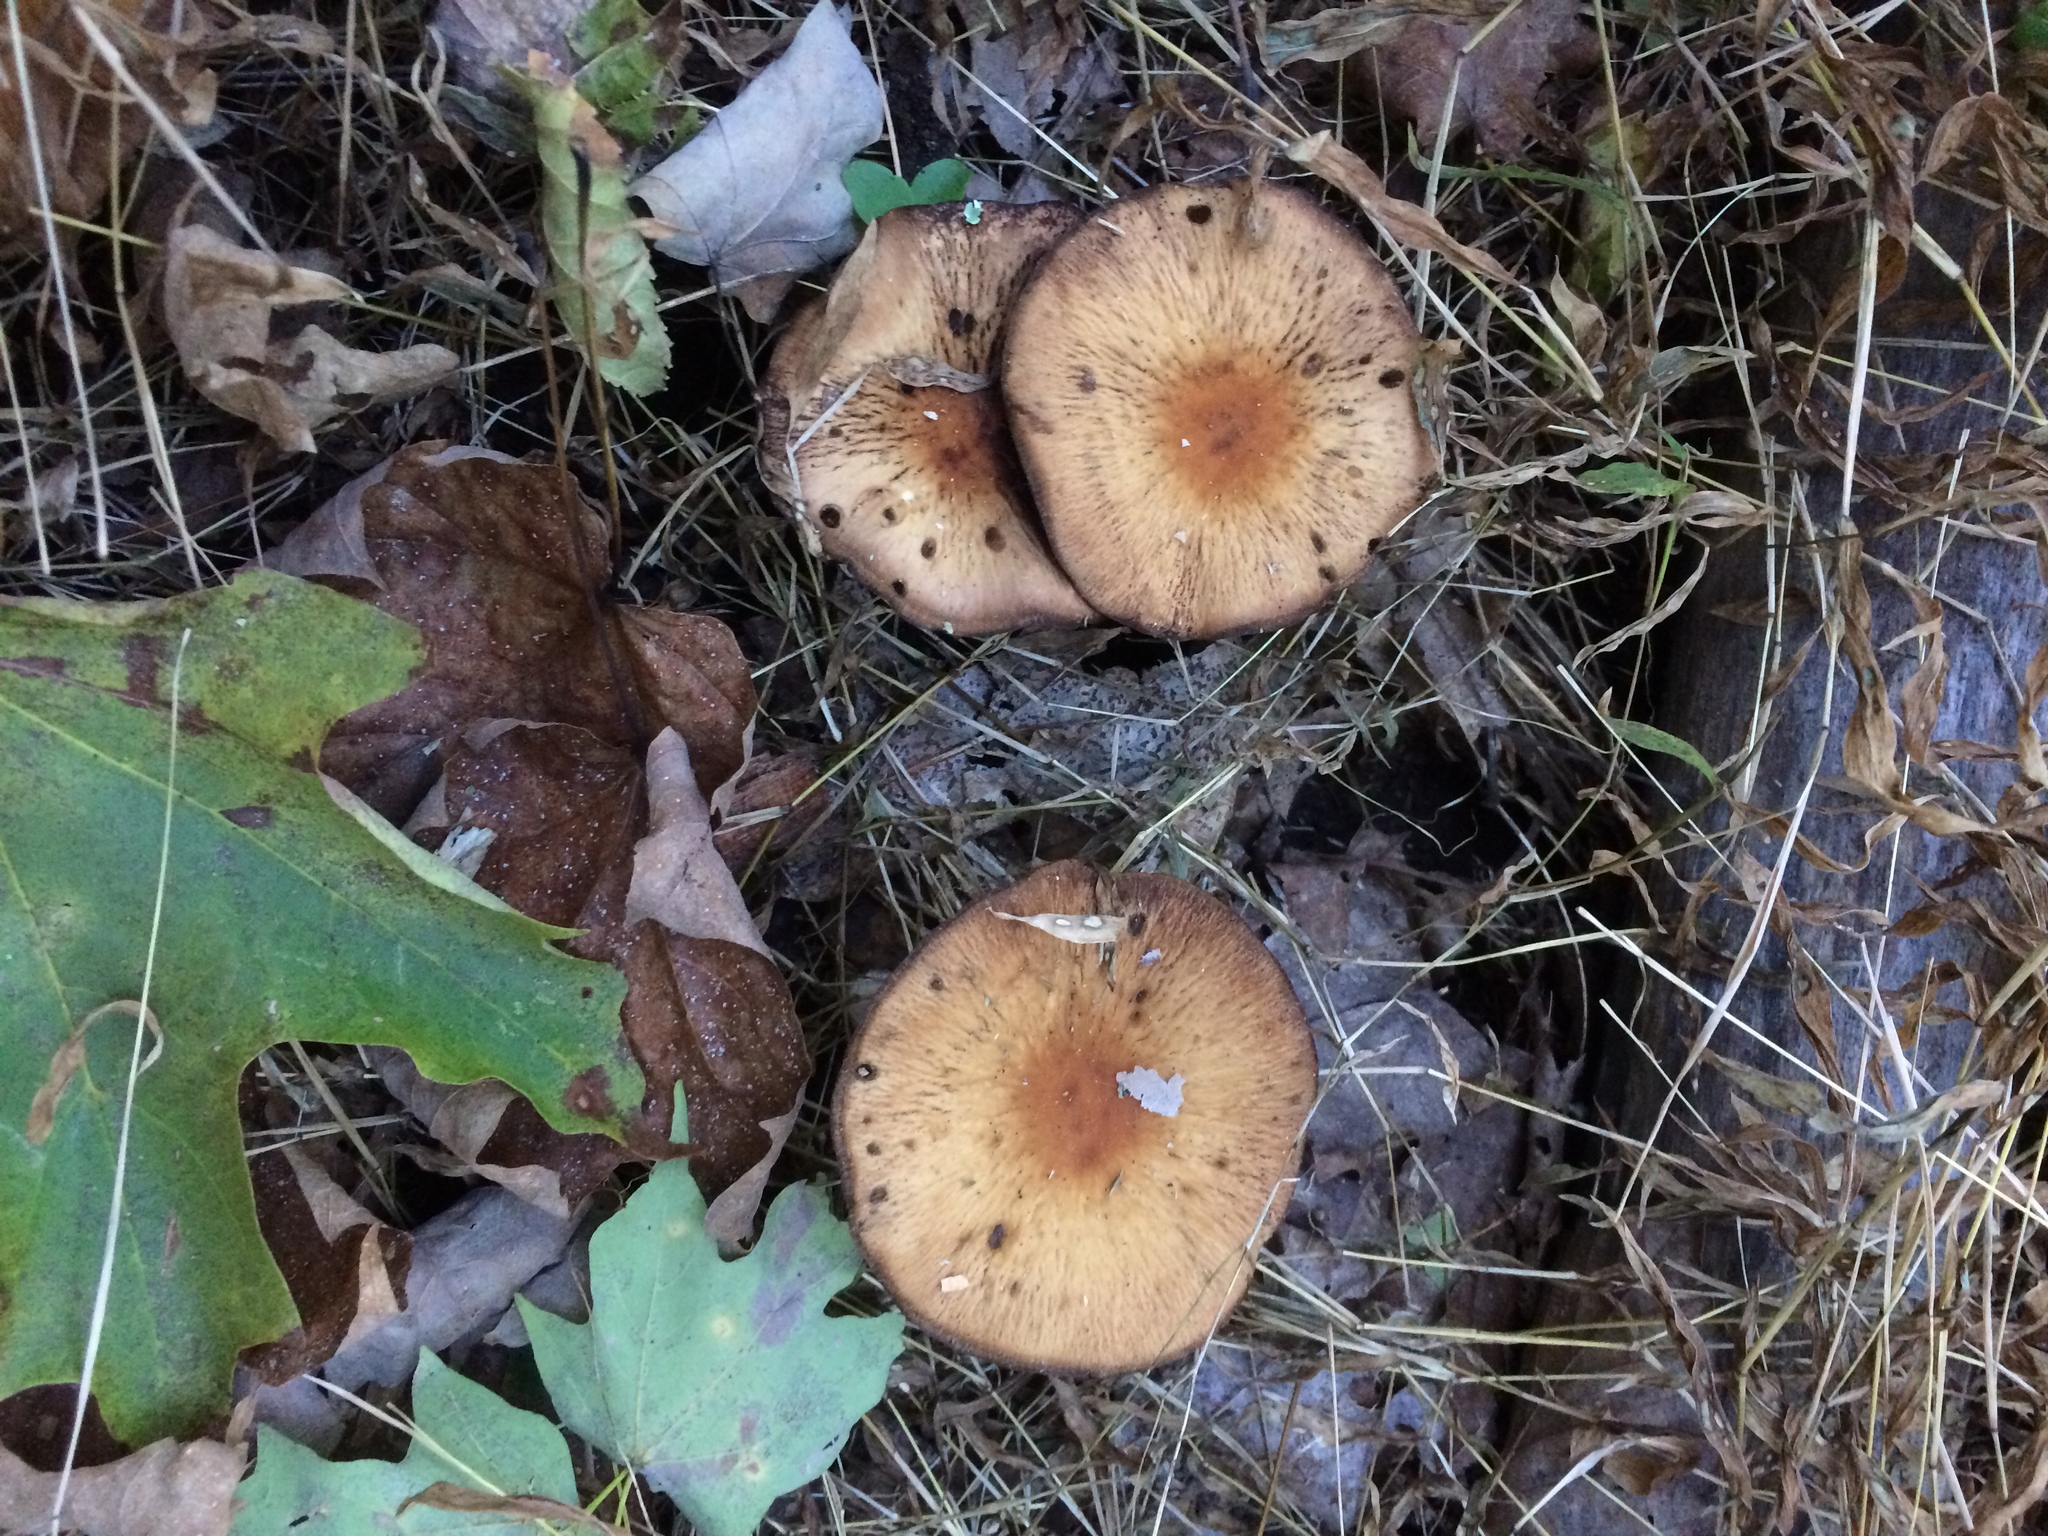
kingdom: Fungi
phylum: Basidiomycota
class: Agaricomycetes
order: Agaricales
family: Psathyrellaceae
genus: Typhrasa
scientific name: Typhrasa gossypina
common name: Wrinkled psathyrella
